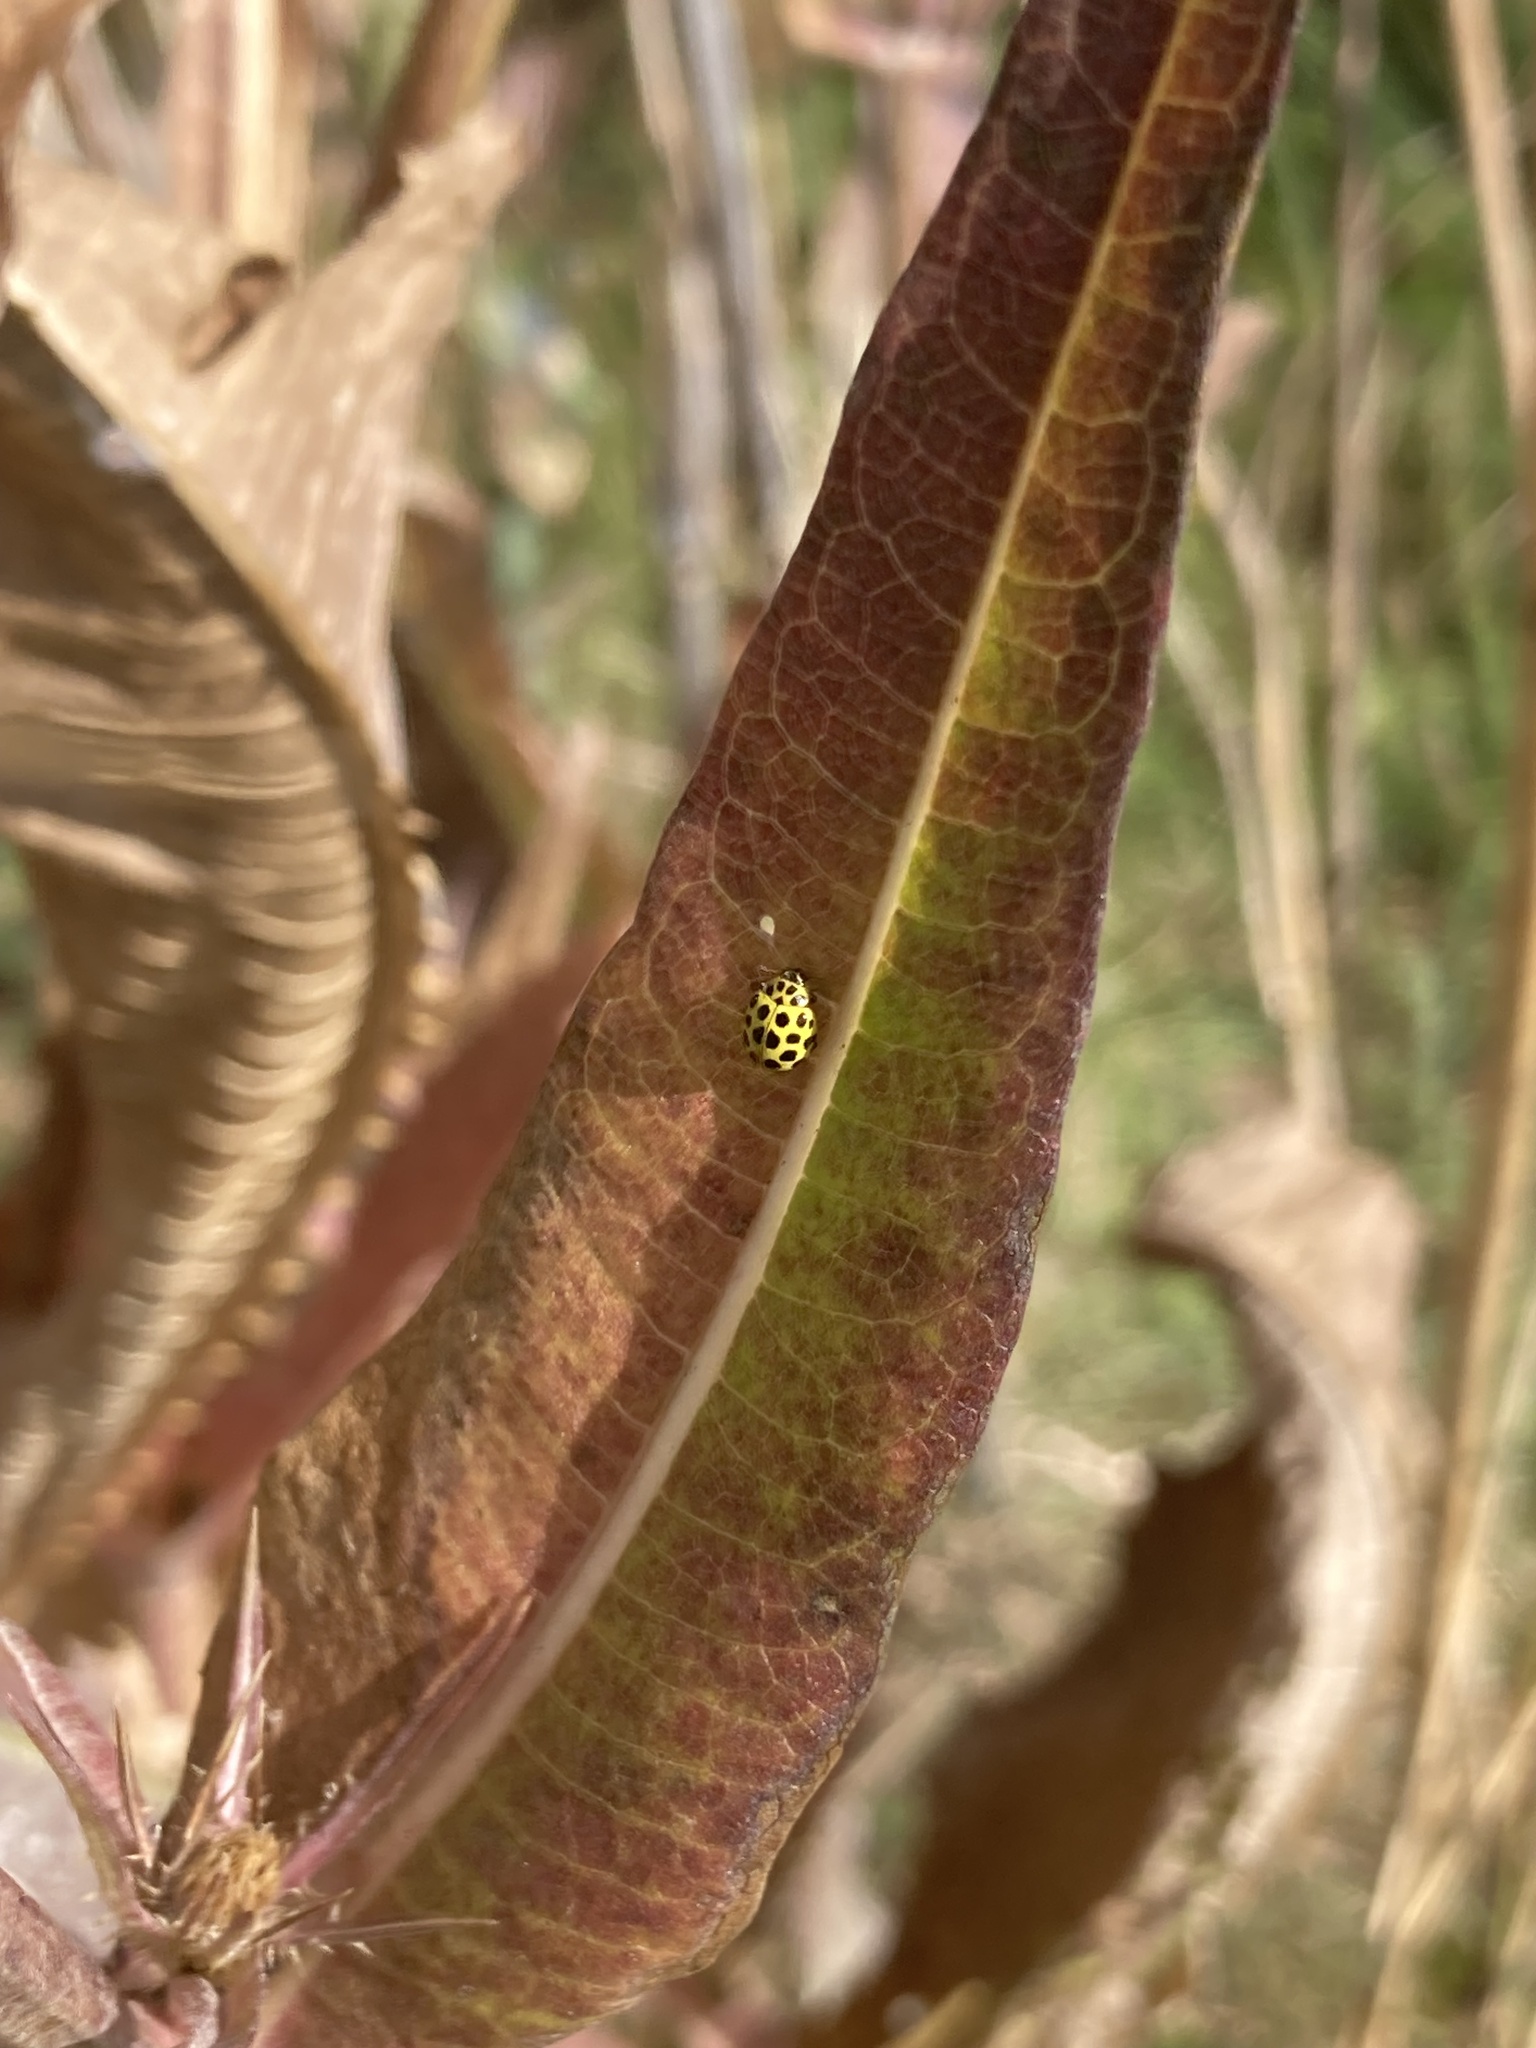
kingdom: Animalia
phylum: Arthropoda
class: Insecta
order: Coleoptera
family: Coccinellidae
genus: Psyllobora
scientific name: Psyllobora vigintiduopunctata
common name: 22-spot ladybird
